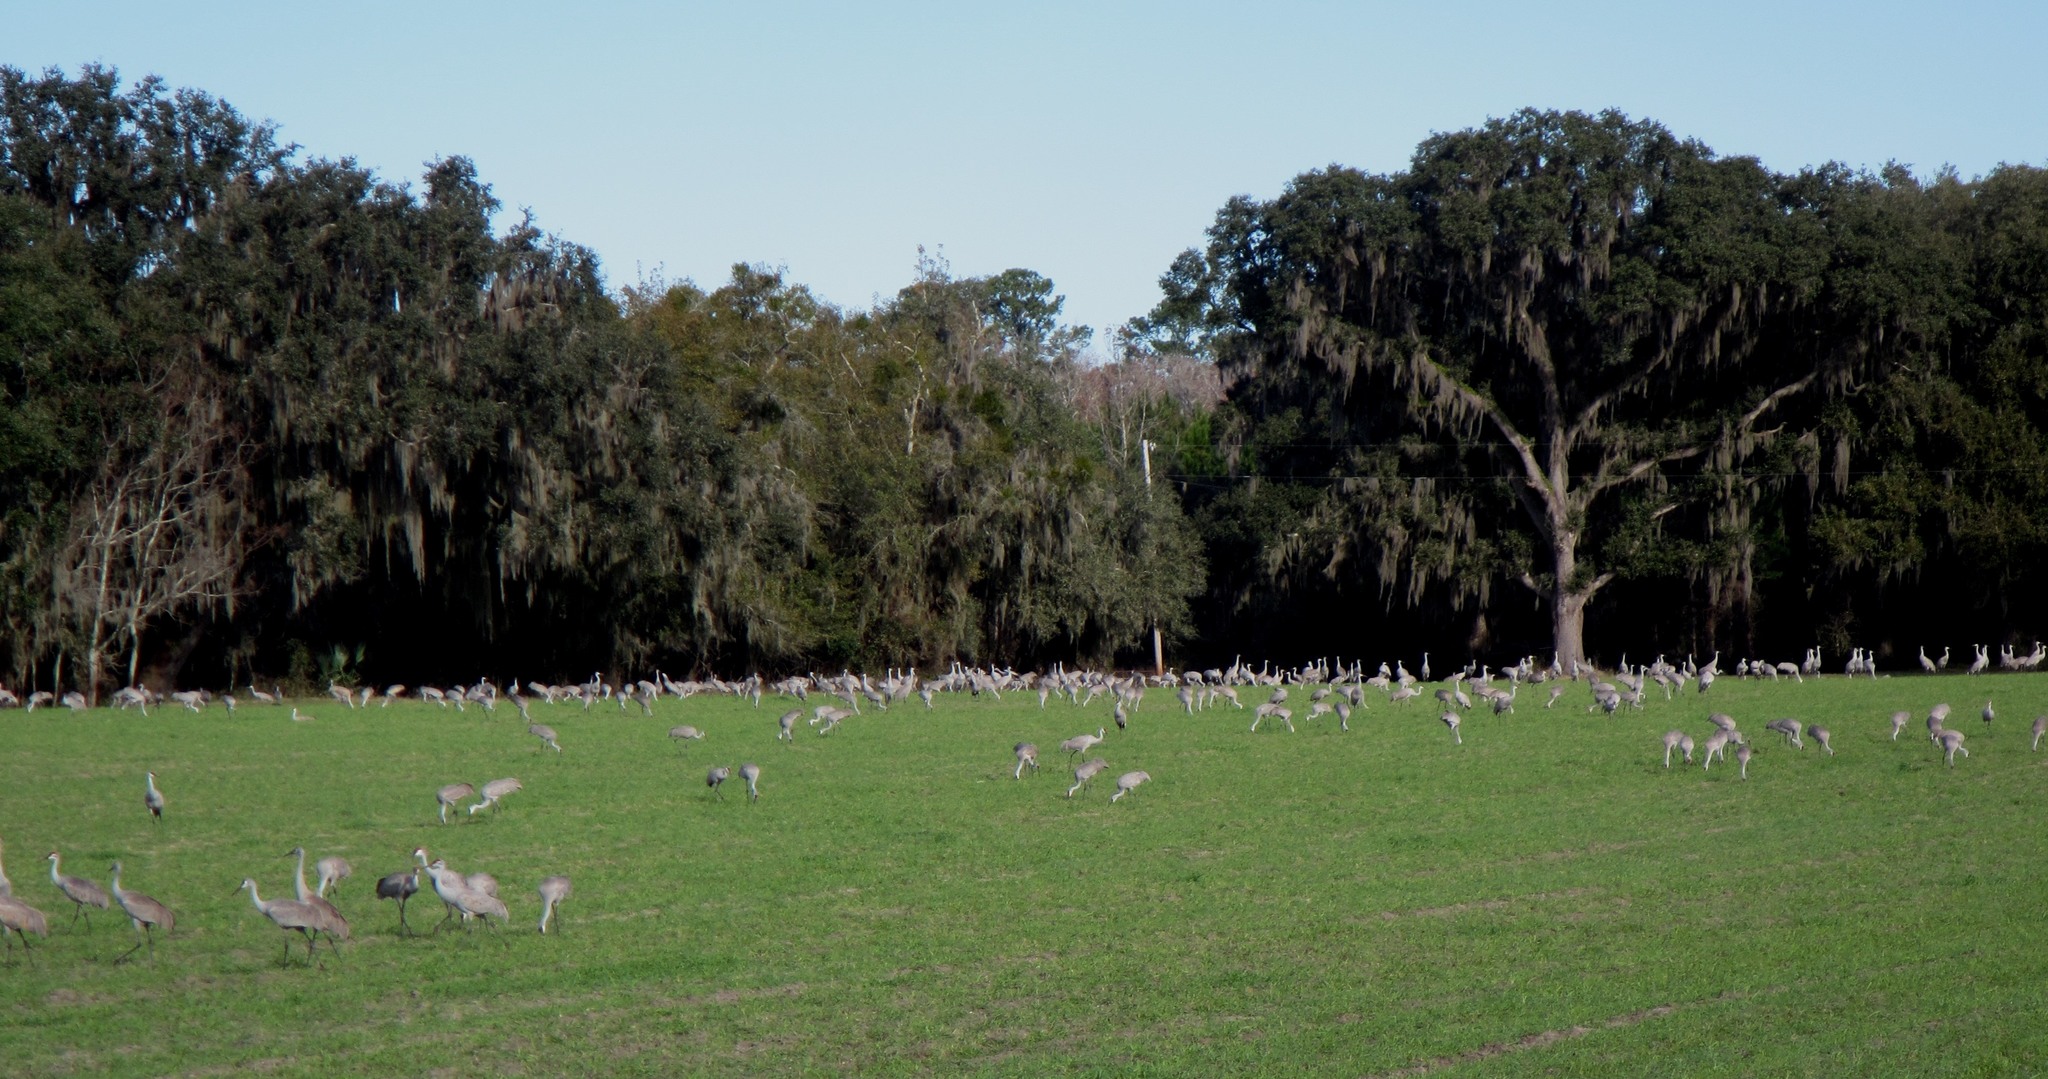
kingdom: Animalia
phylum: Chordata
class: Aves
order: Gruiformes
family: Gruidae
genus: Grus
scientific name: Grus canadensis
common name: Sandhill crane
